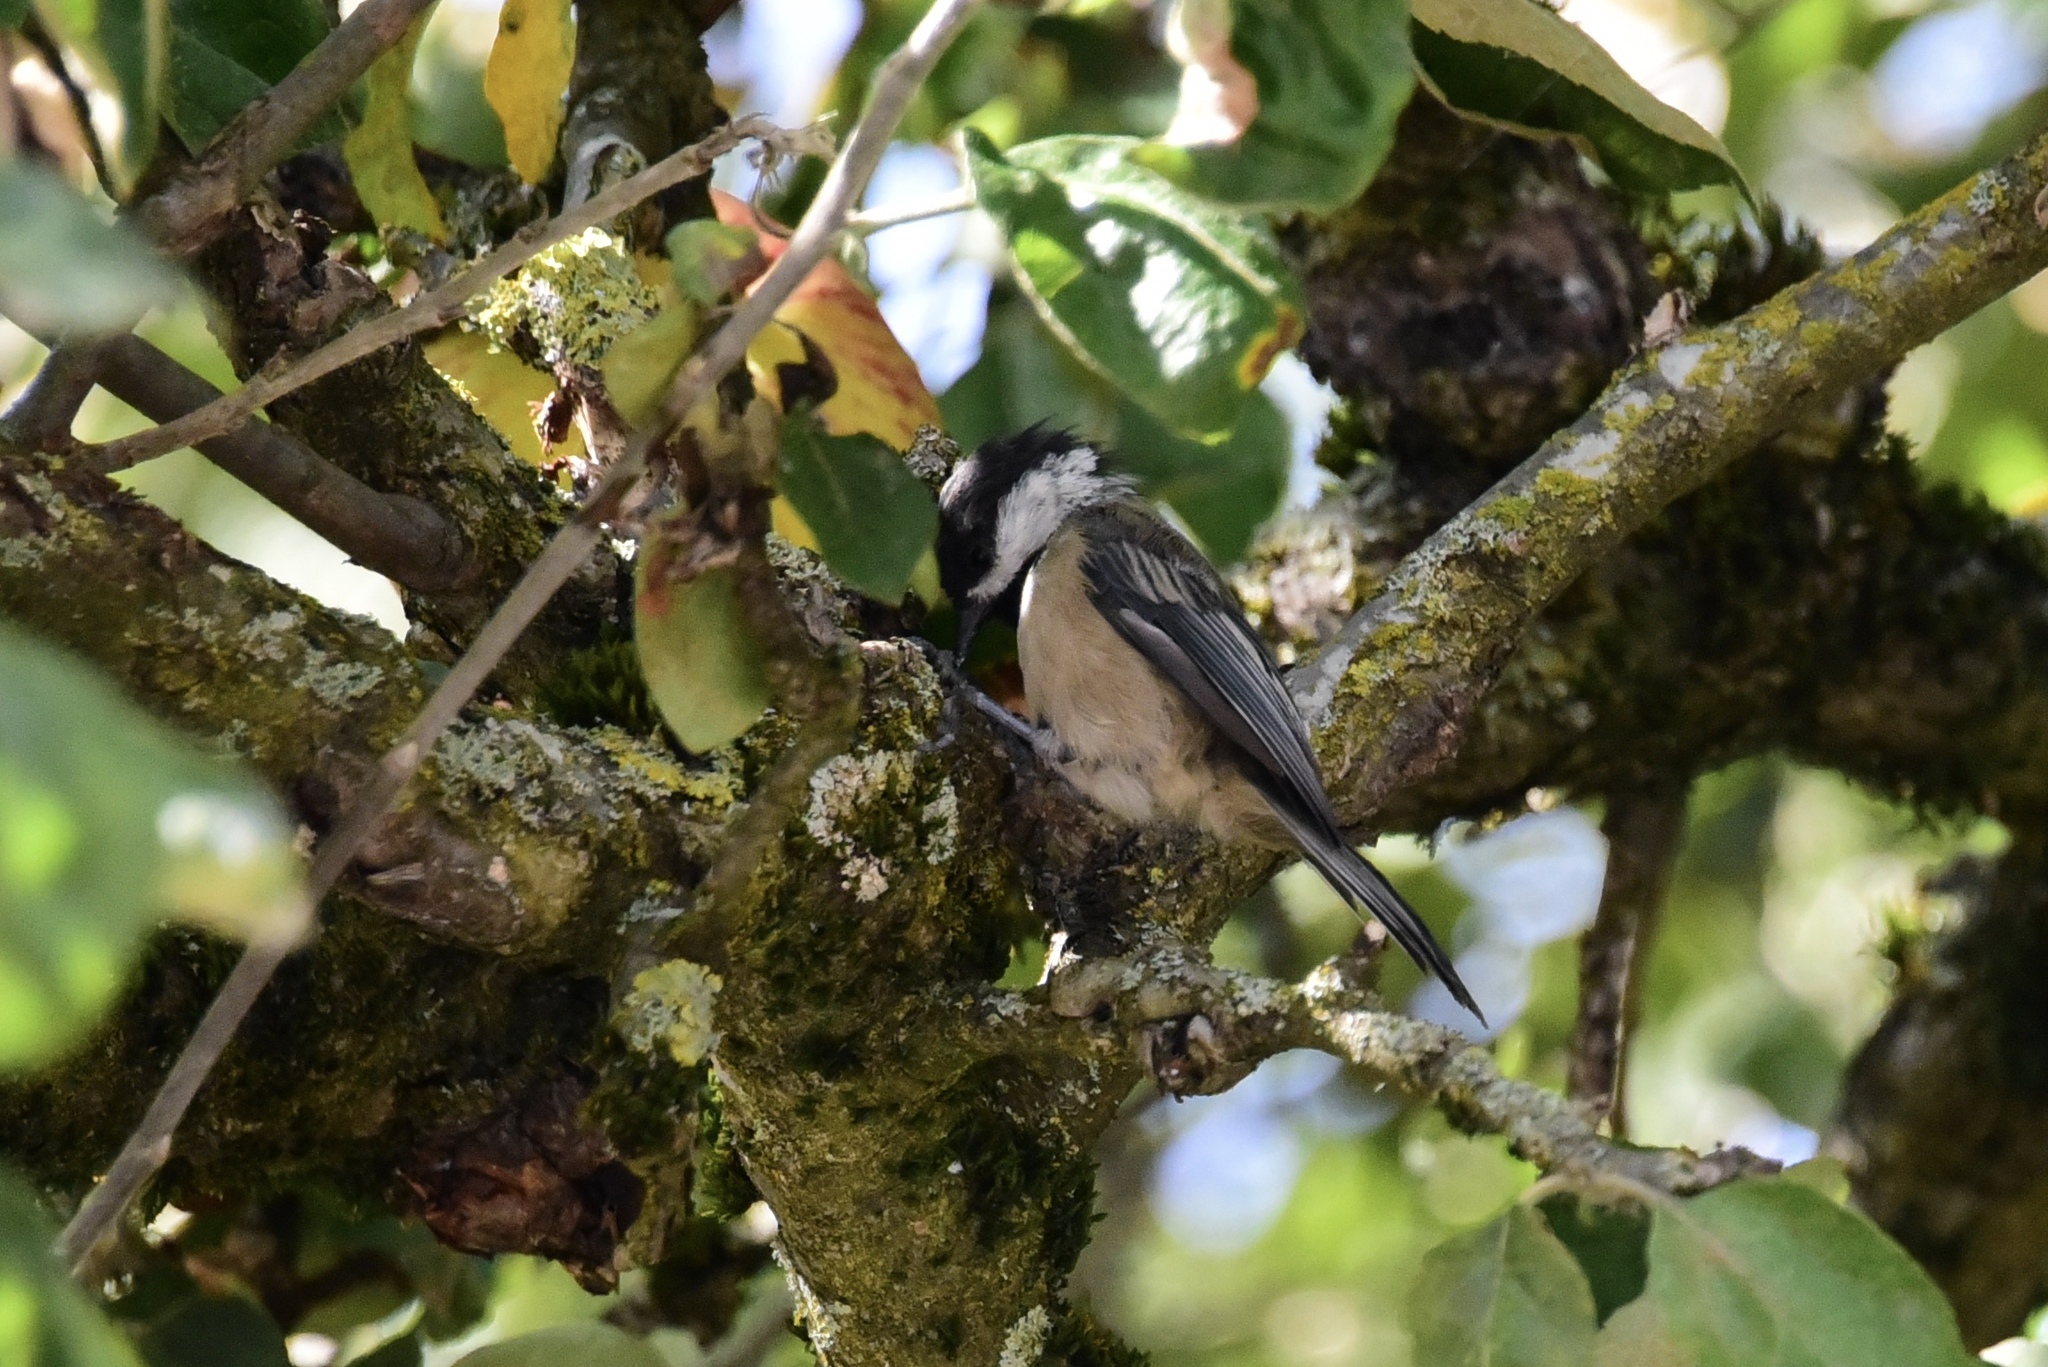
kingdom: Animalia
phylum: Chordata
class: Aves
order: Passeriformes
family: Paridae
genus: Poecile
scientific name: Poecile atricapillus
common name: Black-capped chickadee
